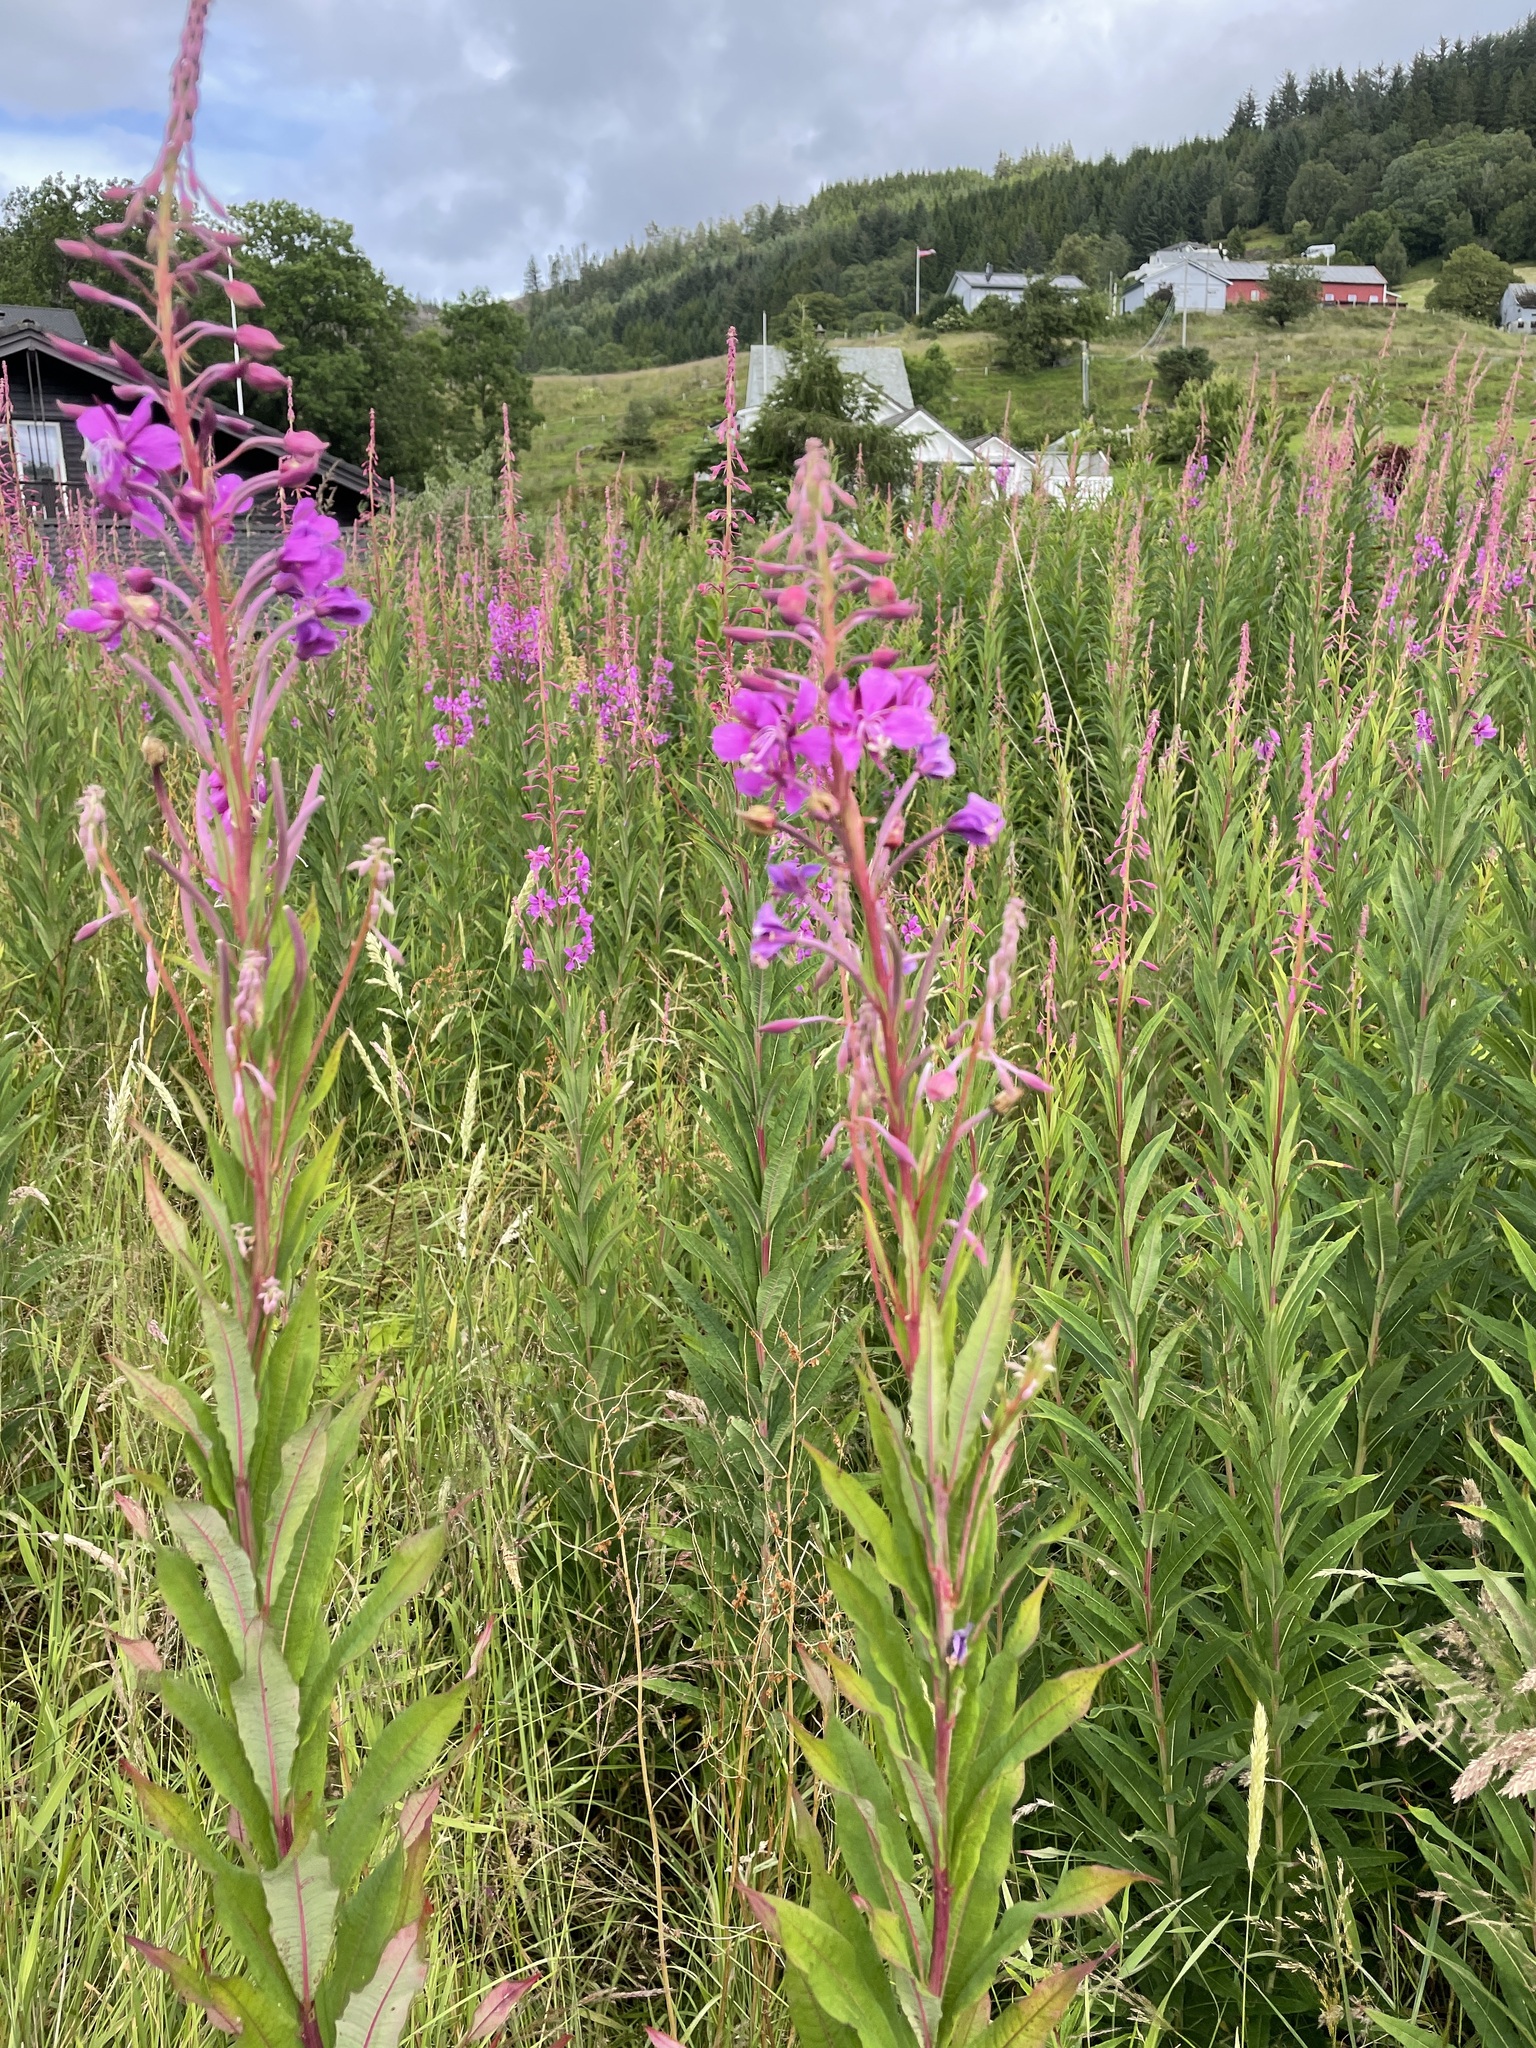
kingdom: Plantae
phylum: Tracheophyta
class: Magnoliopsida
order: Myrtales
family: Onagraceae
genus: Chamaenerion
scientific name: Chamaenerion angustifolium
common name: Fireweed
